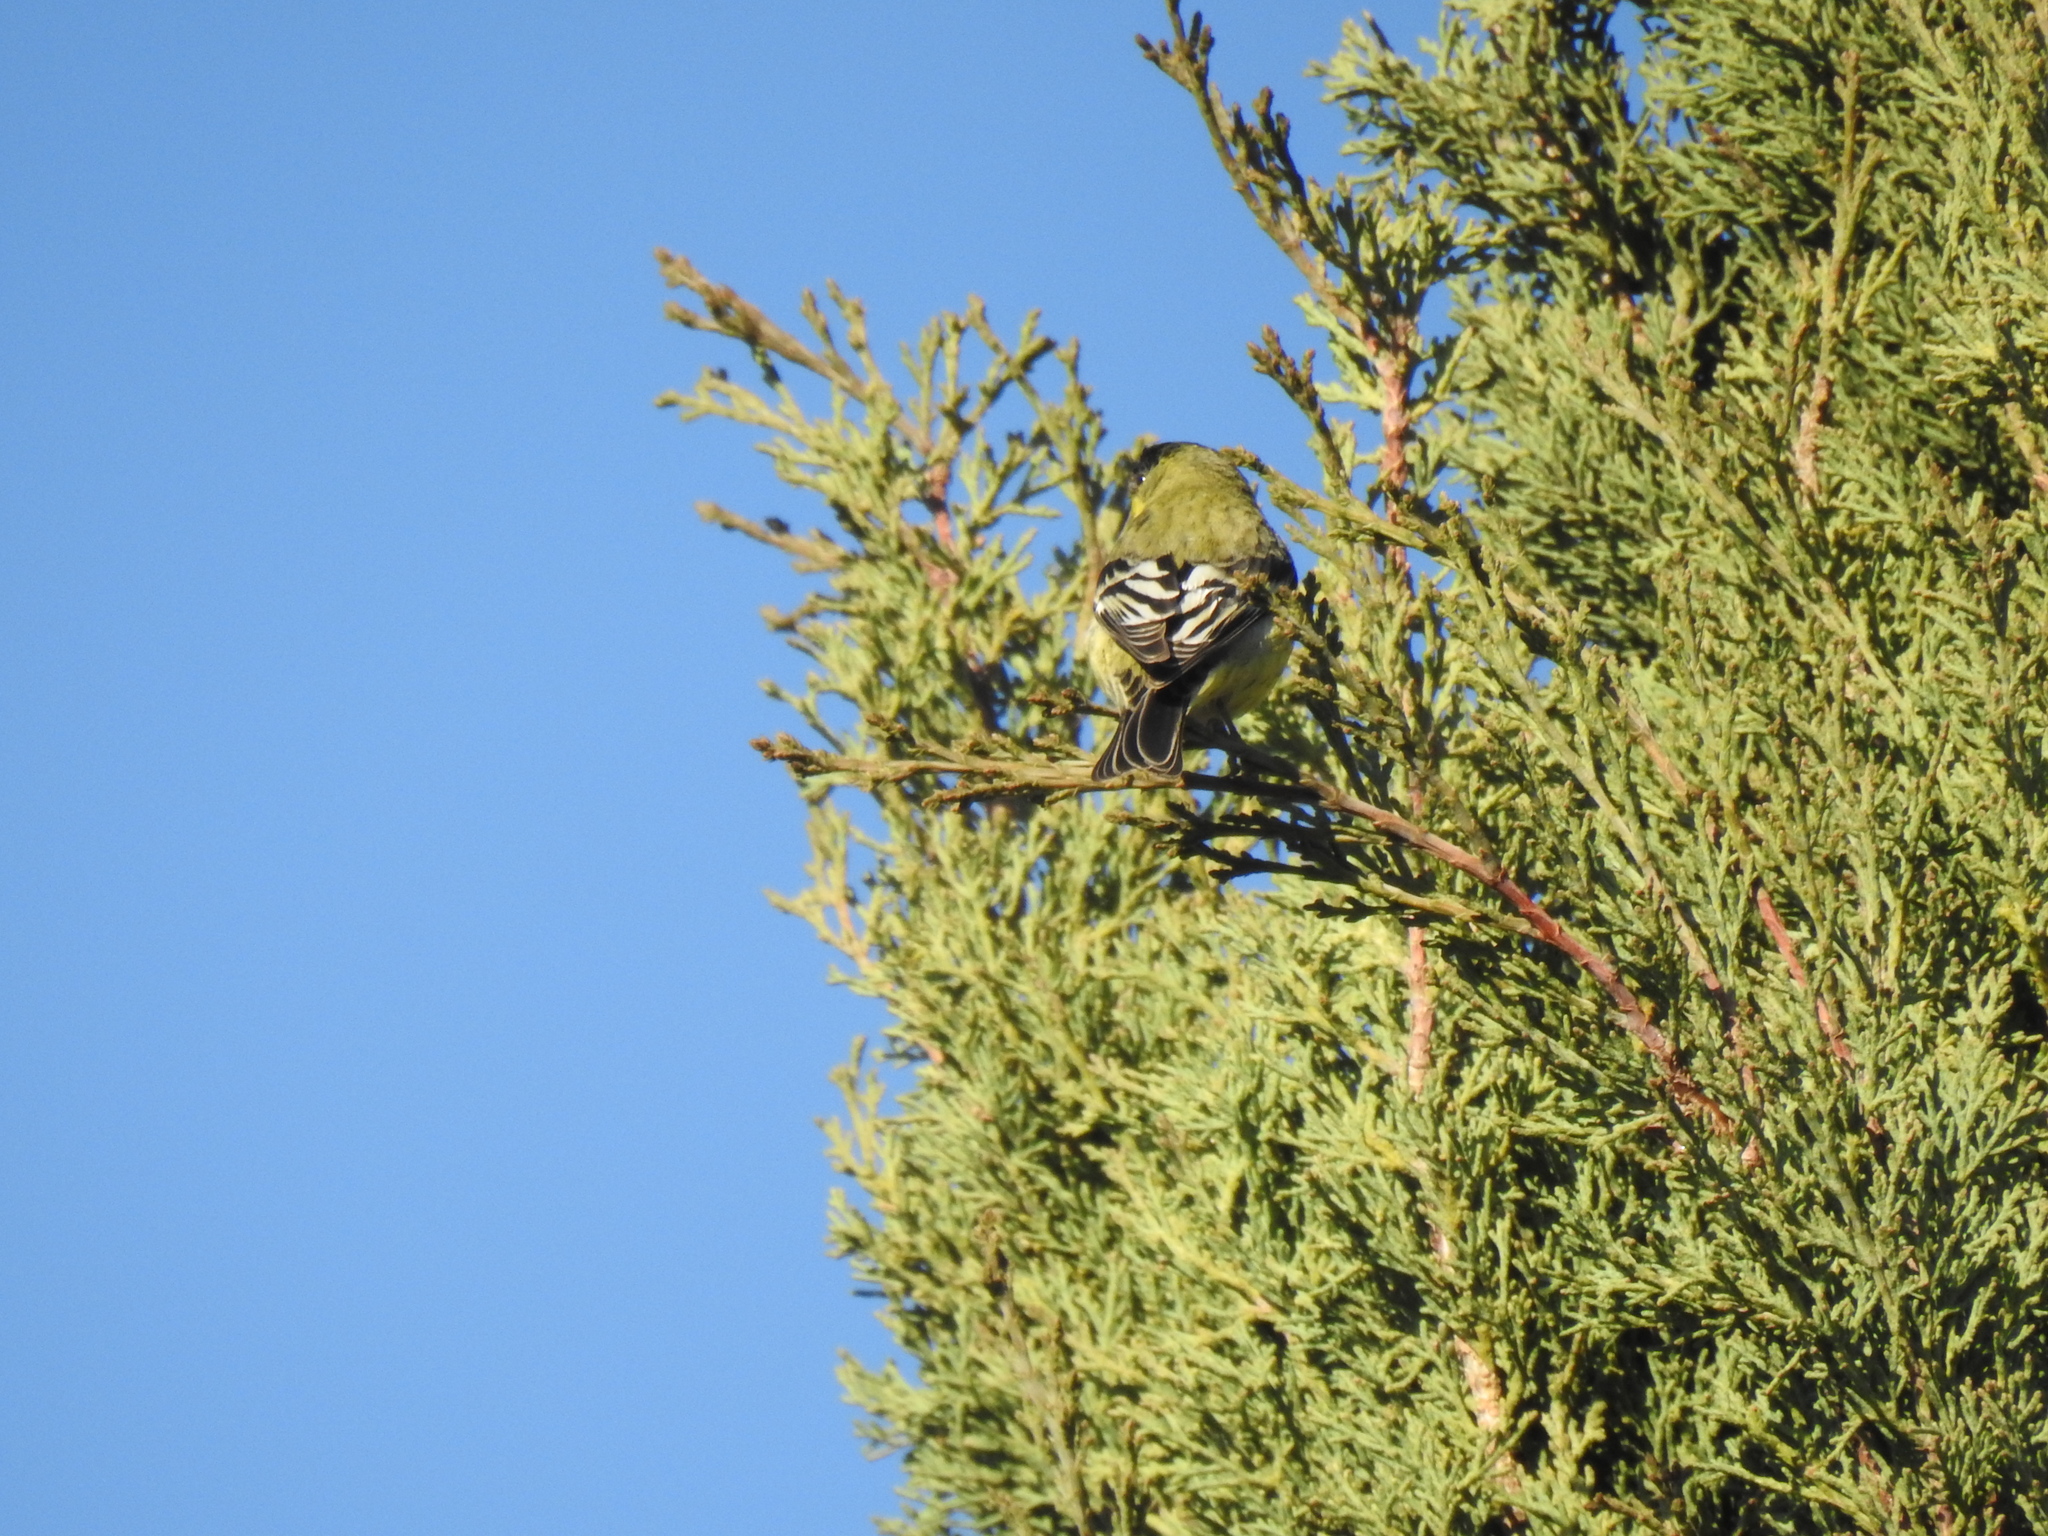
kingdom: Animalia
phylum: Chordata
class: Aves
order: Passeriformes
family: Fringillidae
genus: Spinus
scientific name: Spinus psaltria
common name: Lesser goldfinch
